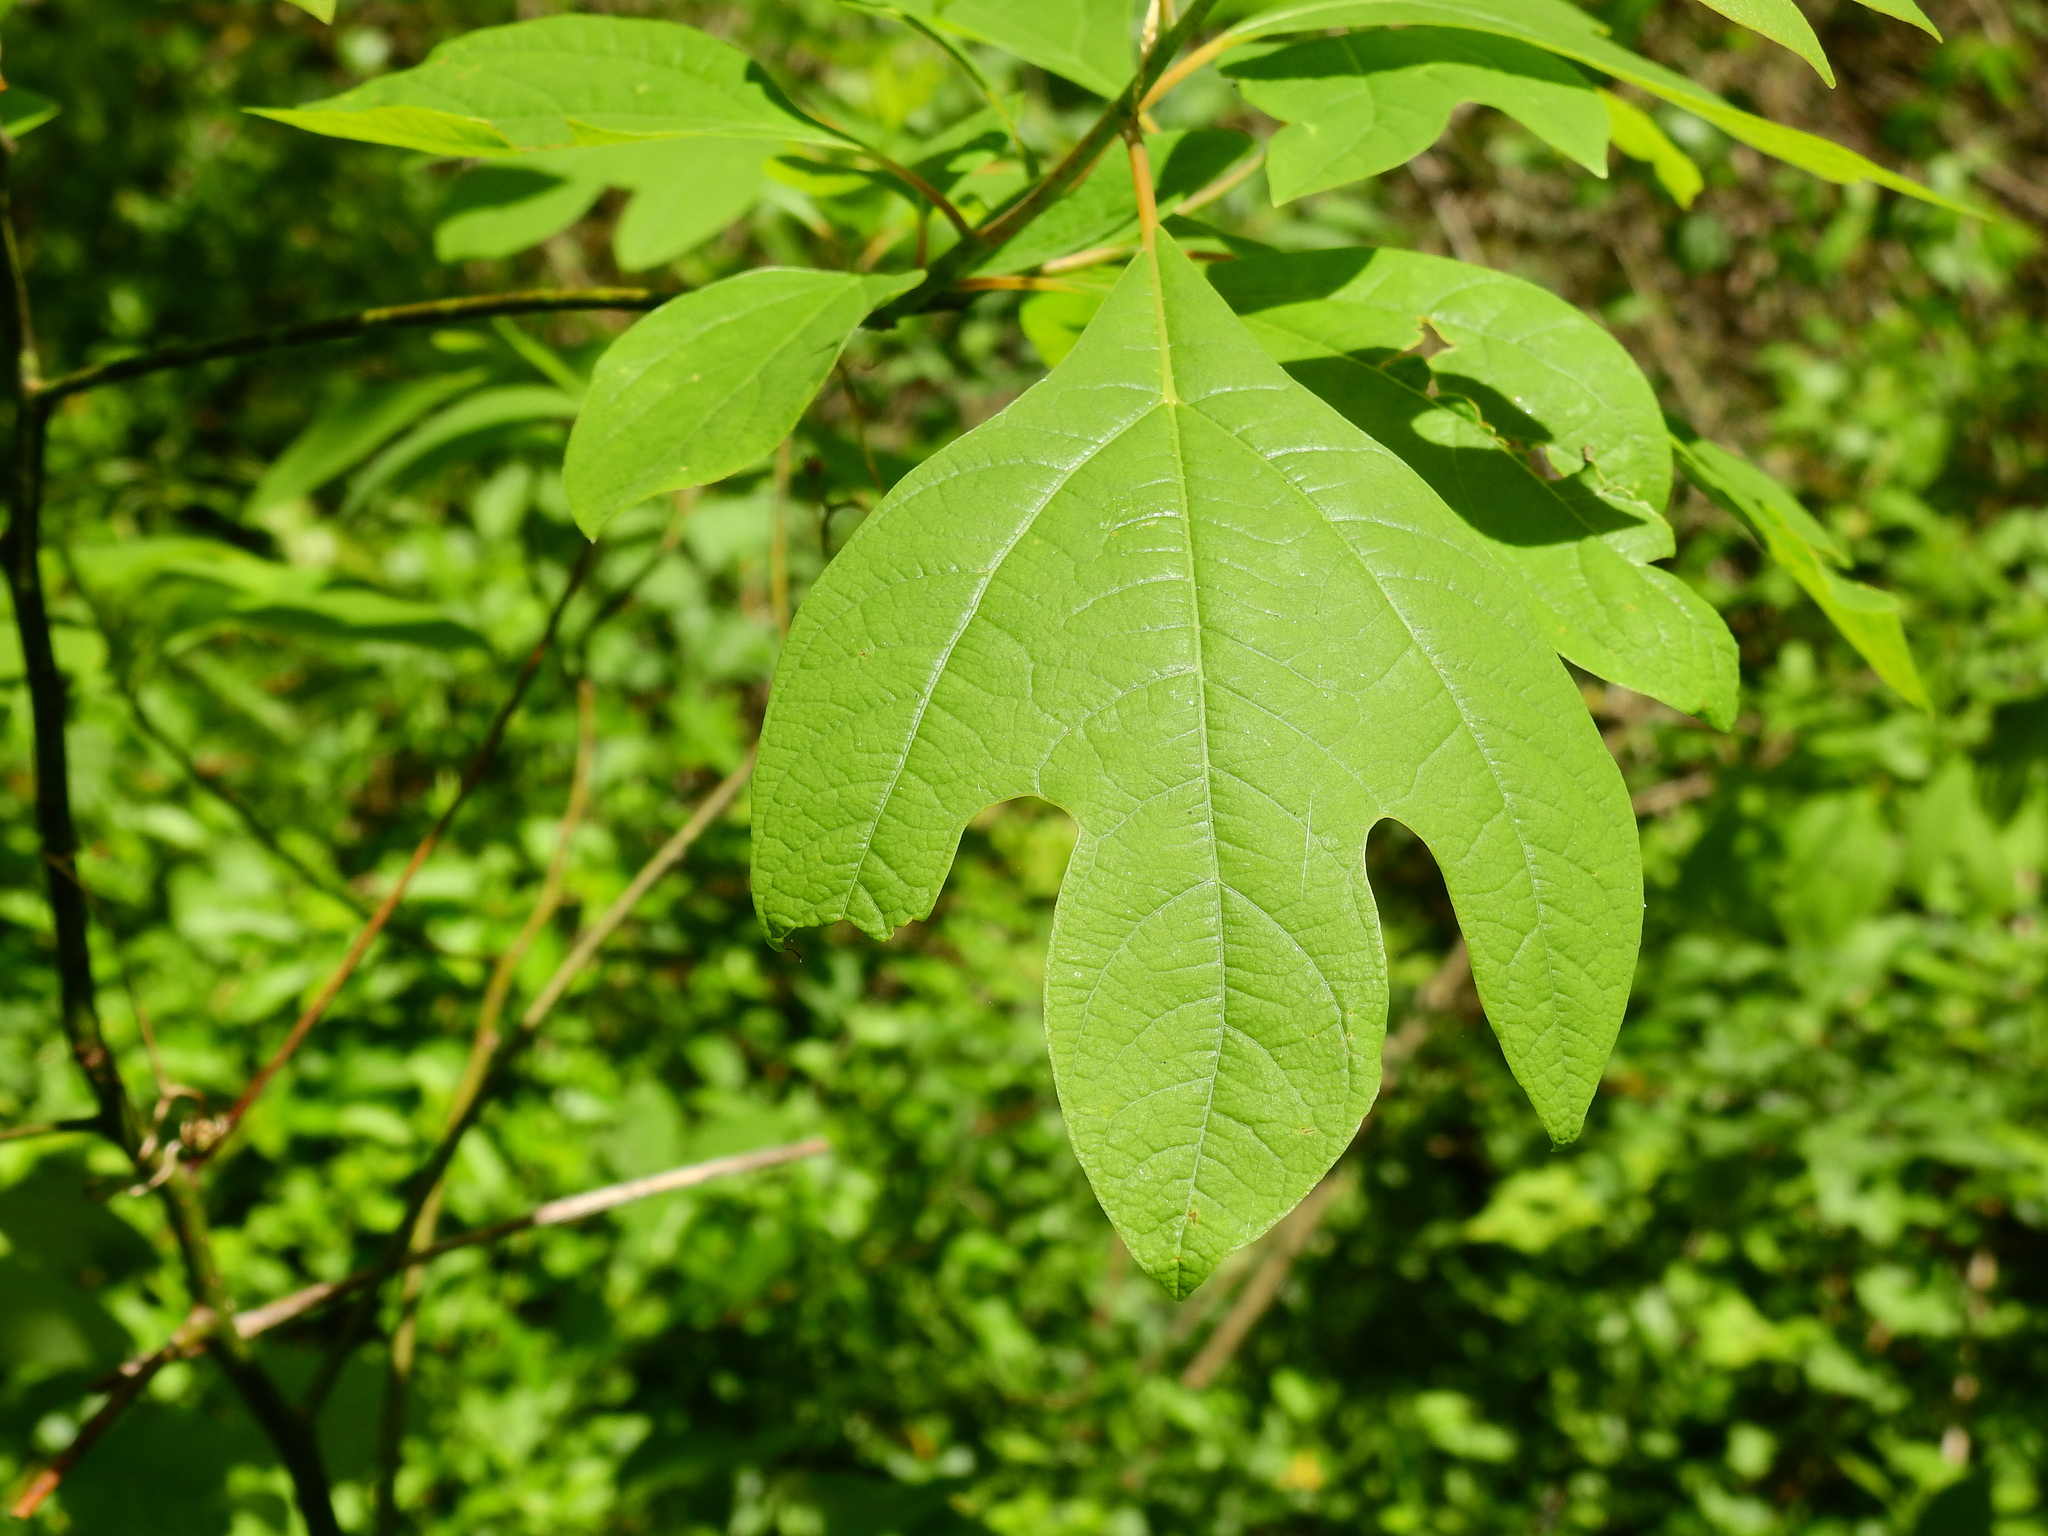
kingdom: Plantae
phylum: Tracheophyta
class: Magnoliopsida
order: Laurales
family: Lauraceae
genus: Sassafras
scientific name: Sassafras albidum
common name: Sassafras
